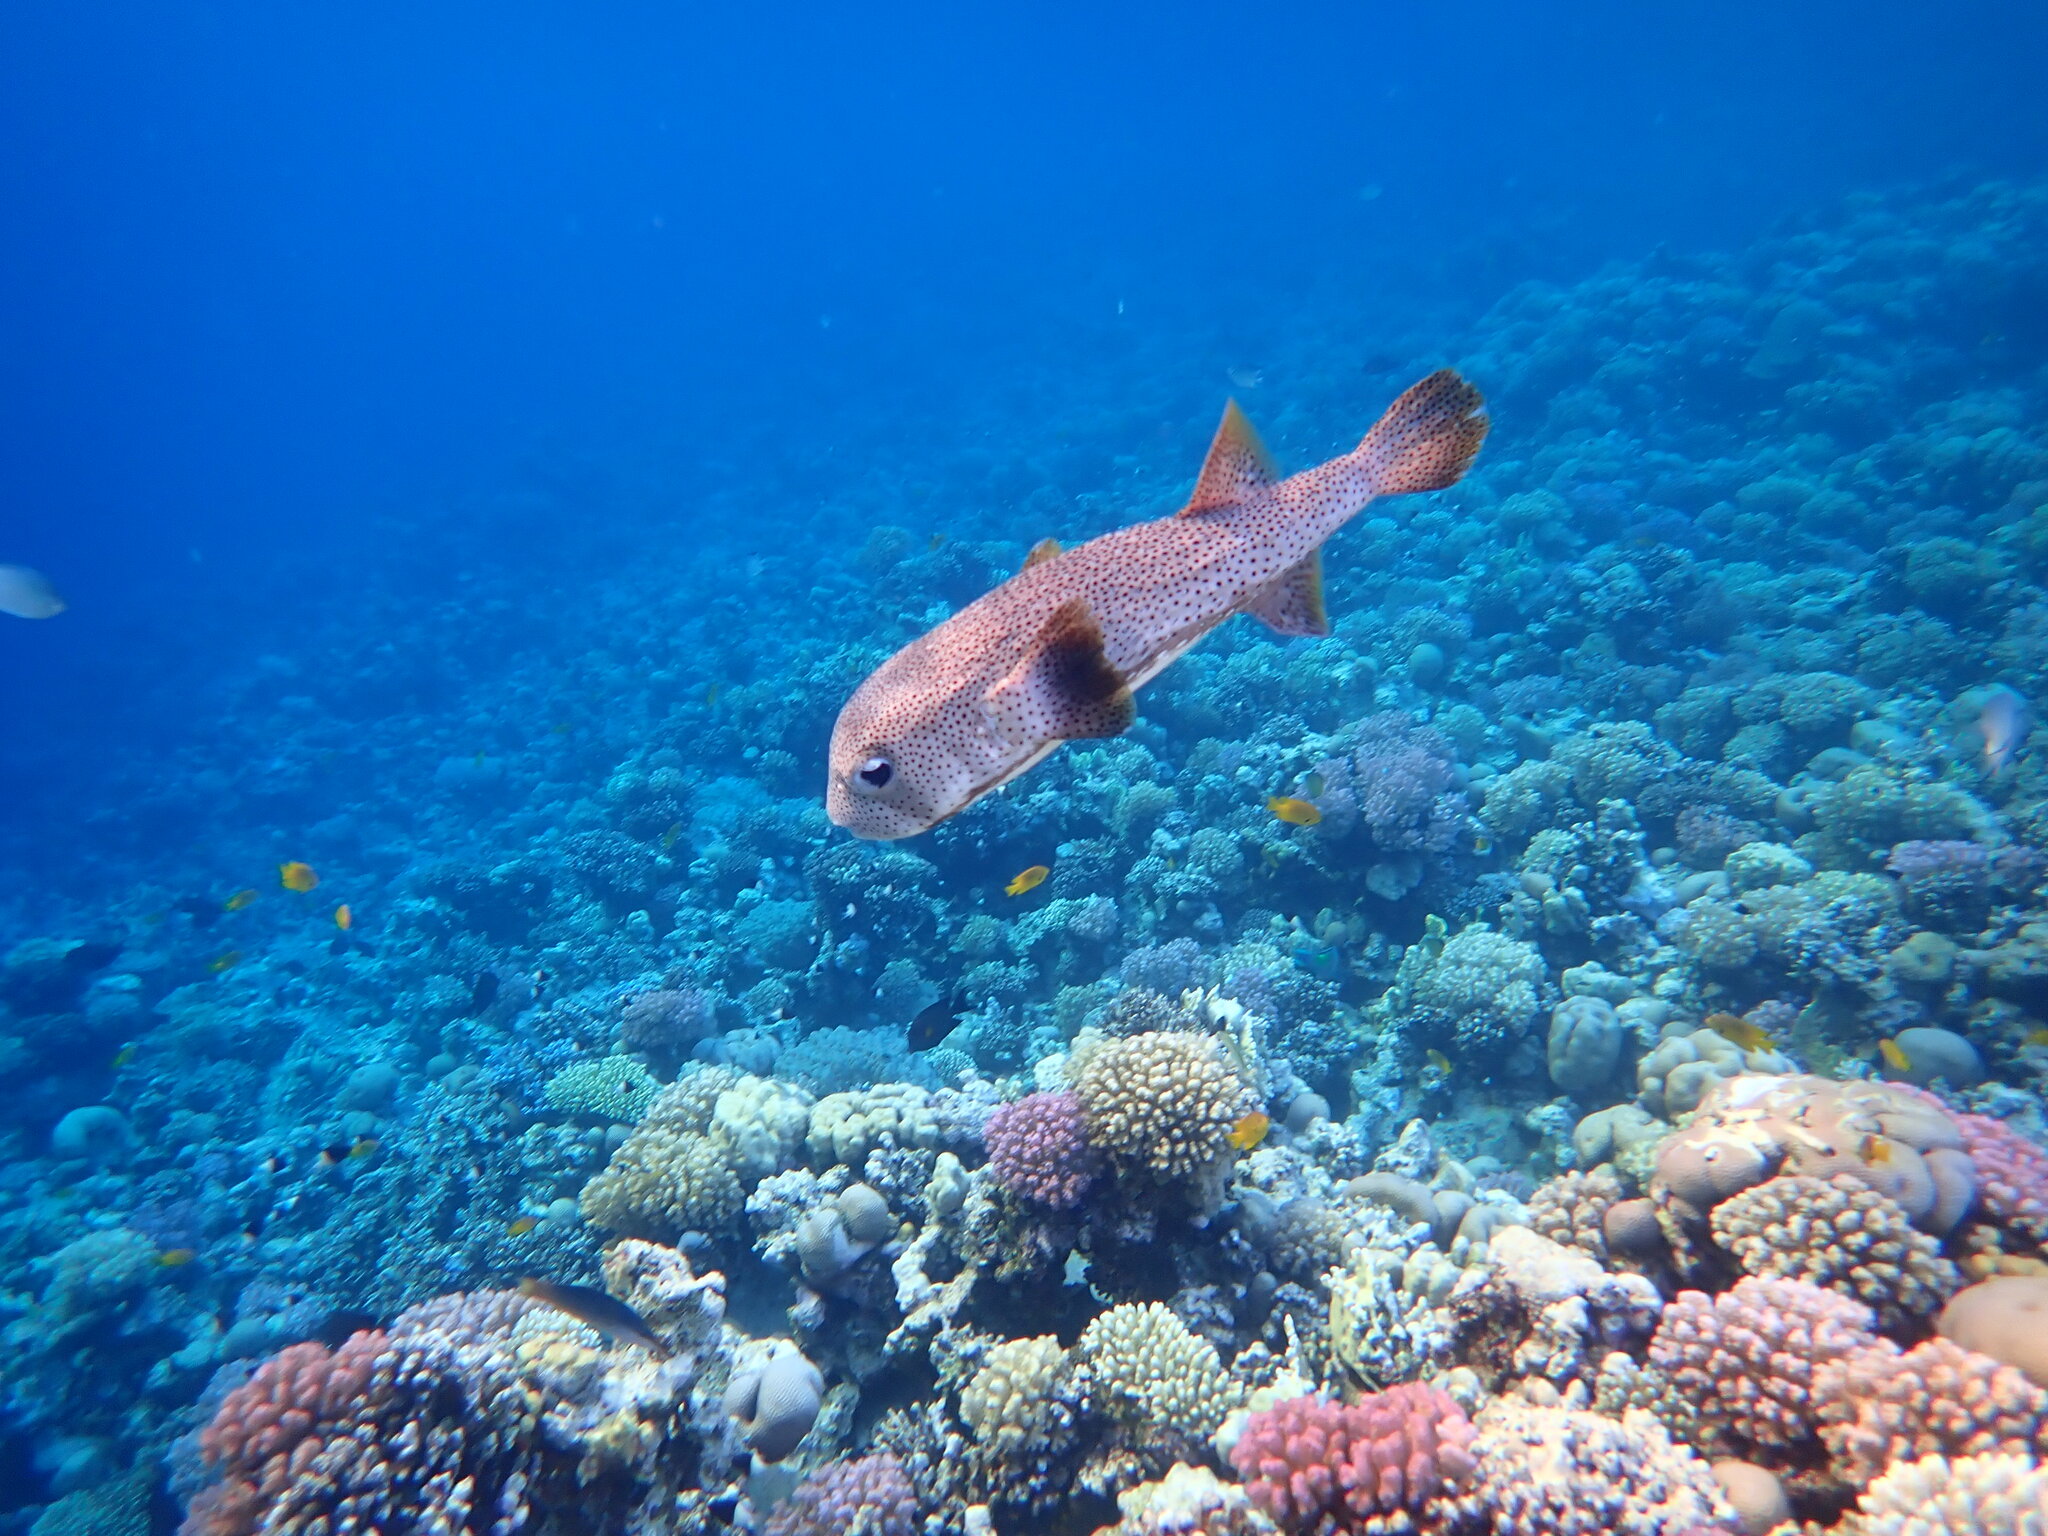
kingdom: Animalia
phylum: Chordata
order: Tetraodontiformes
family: Diodontidae
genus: Diodon
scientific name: Diodon hystrix
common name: Giant porcupinefish
